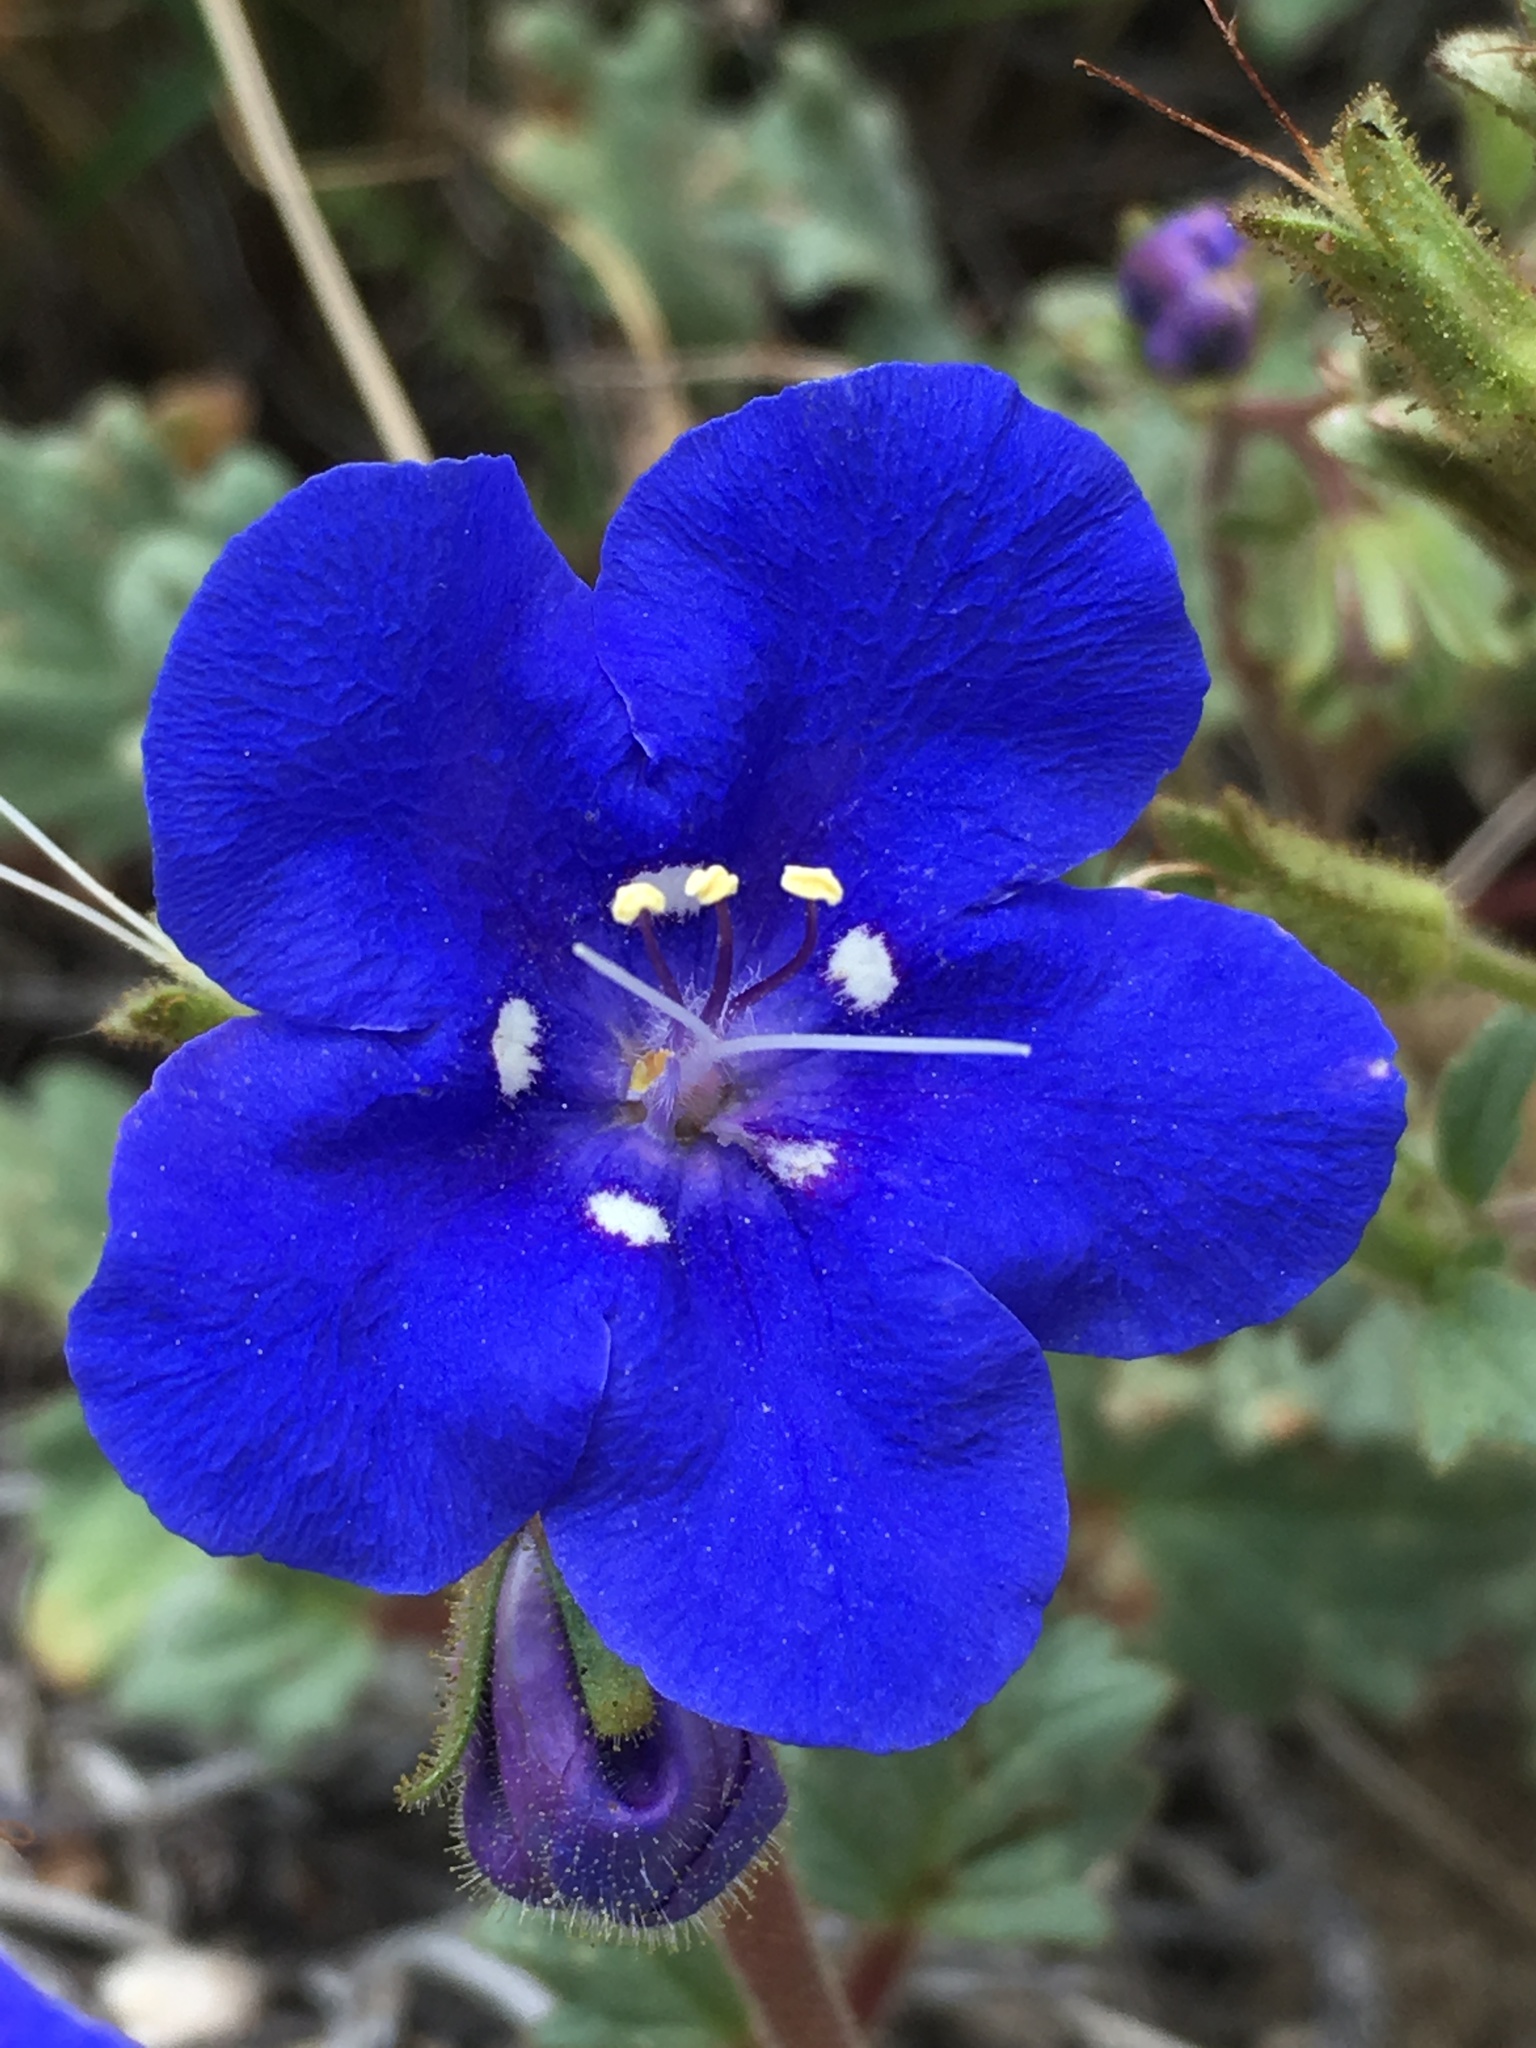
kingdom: Plantae
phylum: Tracheophyta
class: Magnoliopsida
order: Boraginales
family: Hydrophyllaceae
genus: Phacelia
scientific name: Phacelia nashiana
